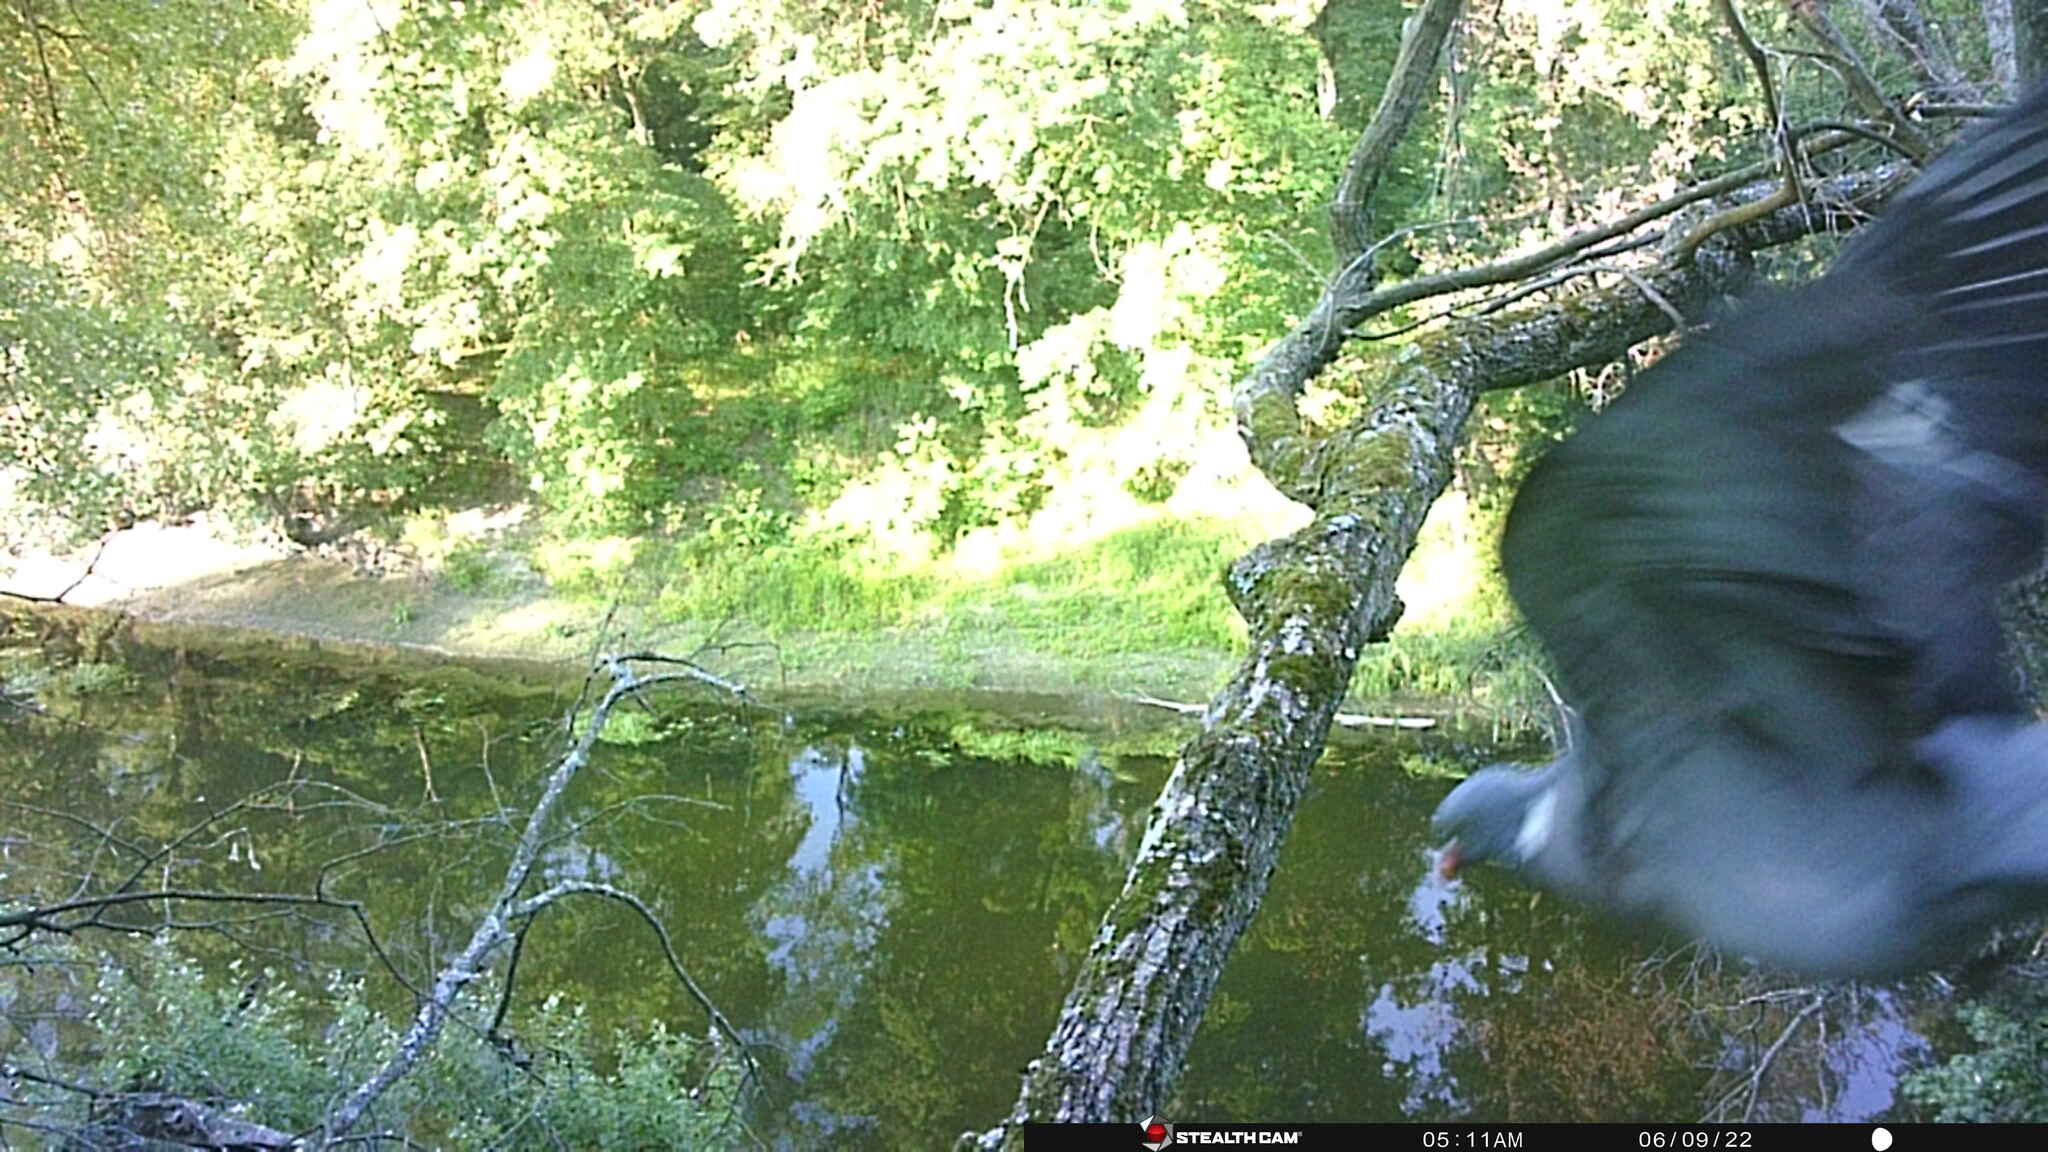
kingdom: Animalia
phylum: Chordata
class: Aves
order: Columbiformes
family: Columbidae
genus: Columba
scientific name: Columba palumbus
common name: Common wood pigeon
